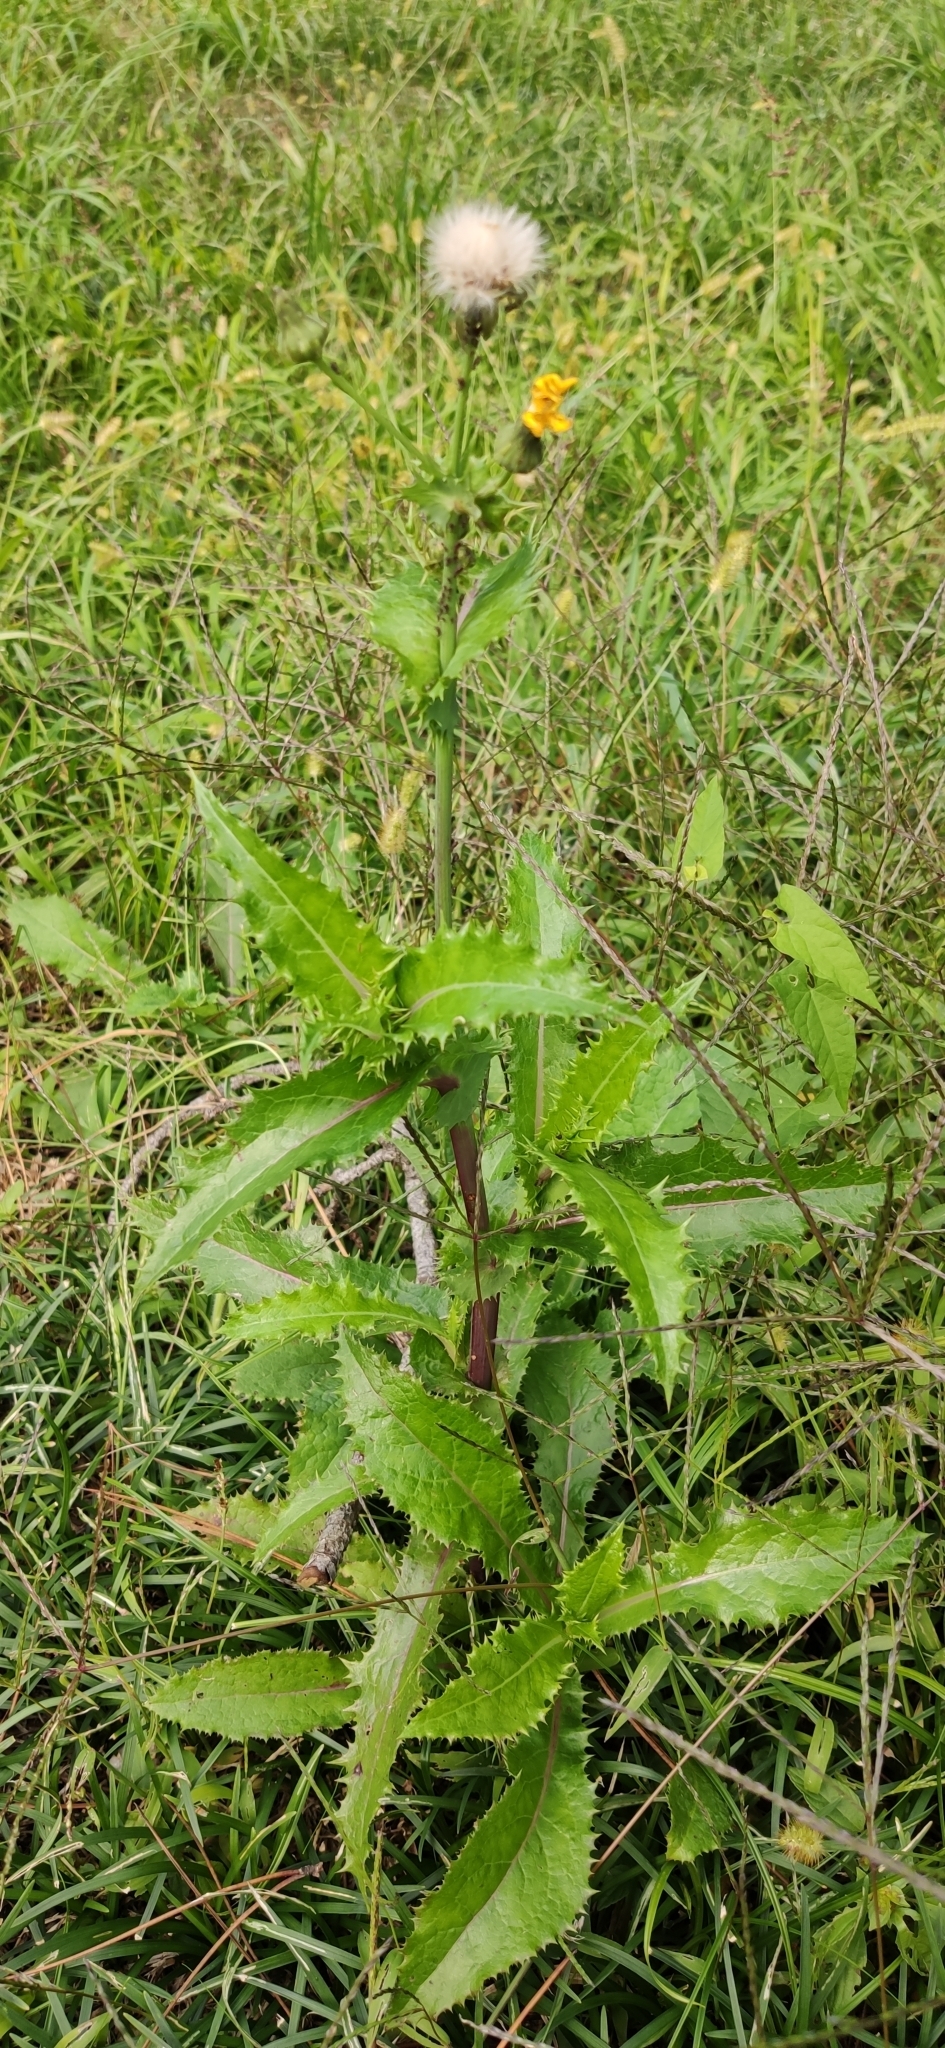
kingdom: Plantae
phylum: Tracheophyta
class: Magnoliopsida
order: Asterales
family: Asteraceae
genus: Sonchus
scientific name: Sonchus asper
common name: Prickly sow-thistle
